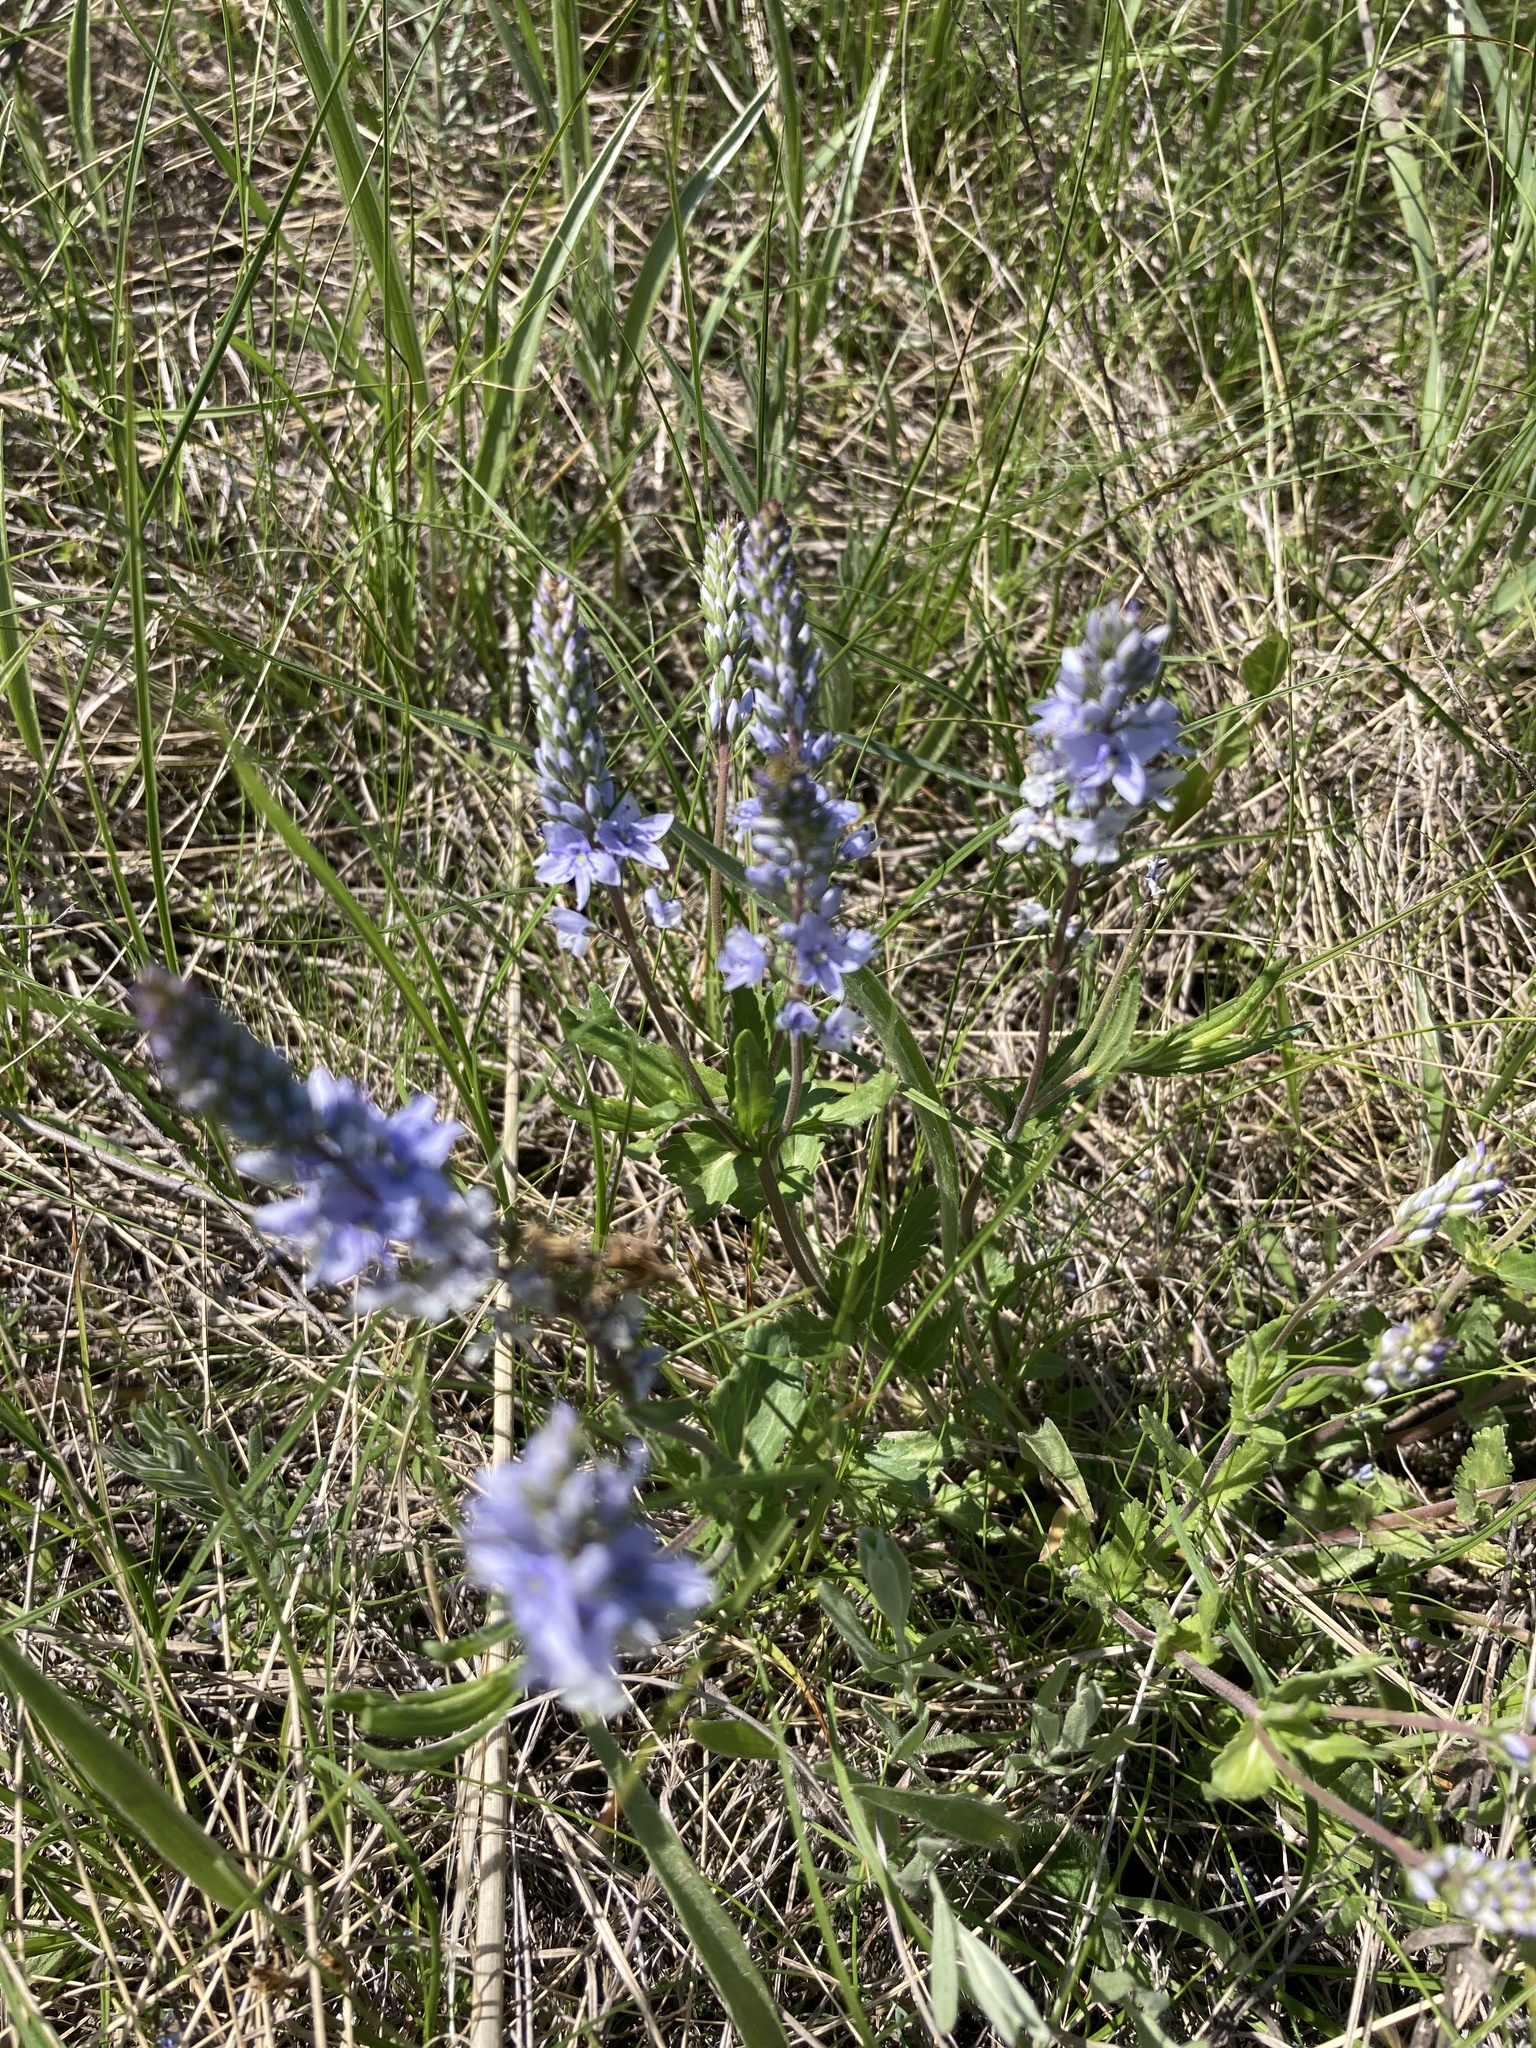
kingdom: Plantae
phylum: Tracheophyta
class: Magnoliopsida
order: Lamiales
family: Plantaginaceae
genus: Veronica
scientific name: Veronica prostrata
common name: Prostrate speedwell
